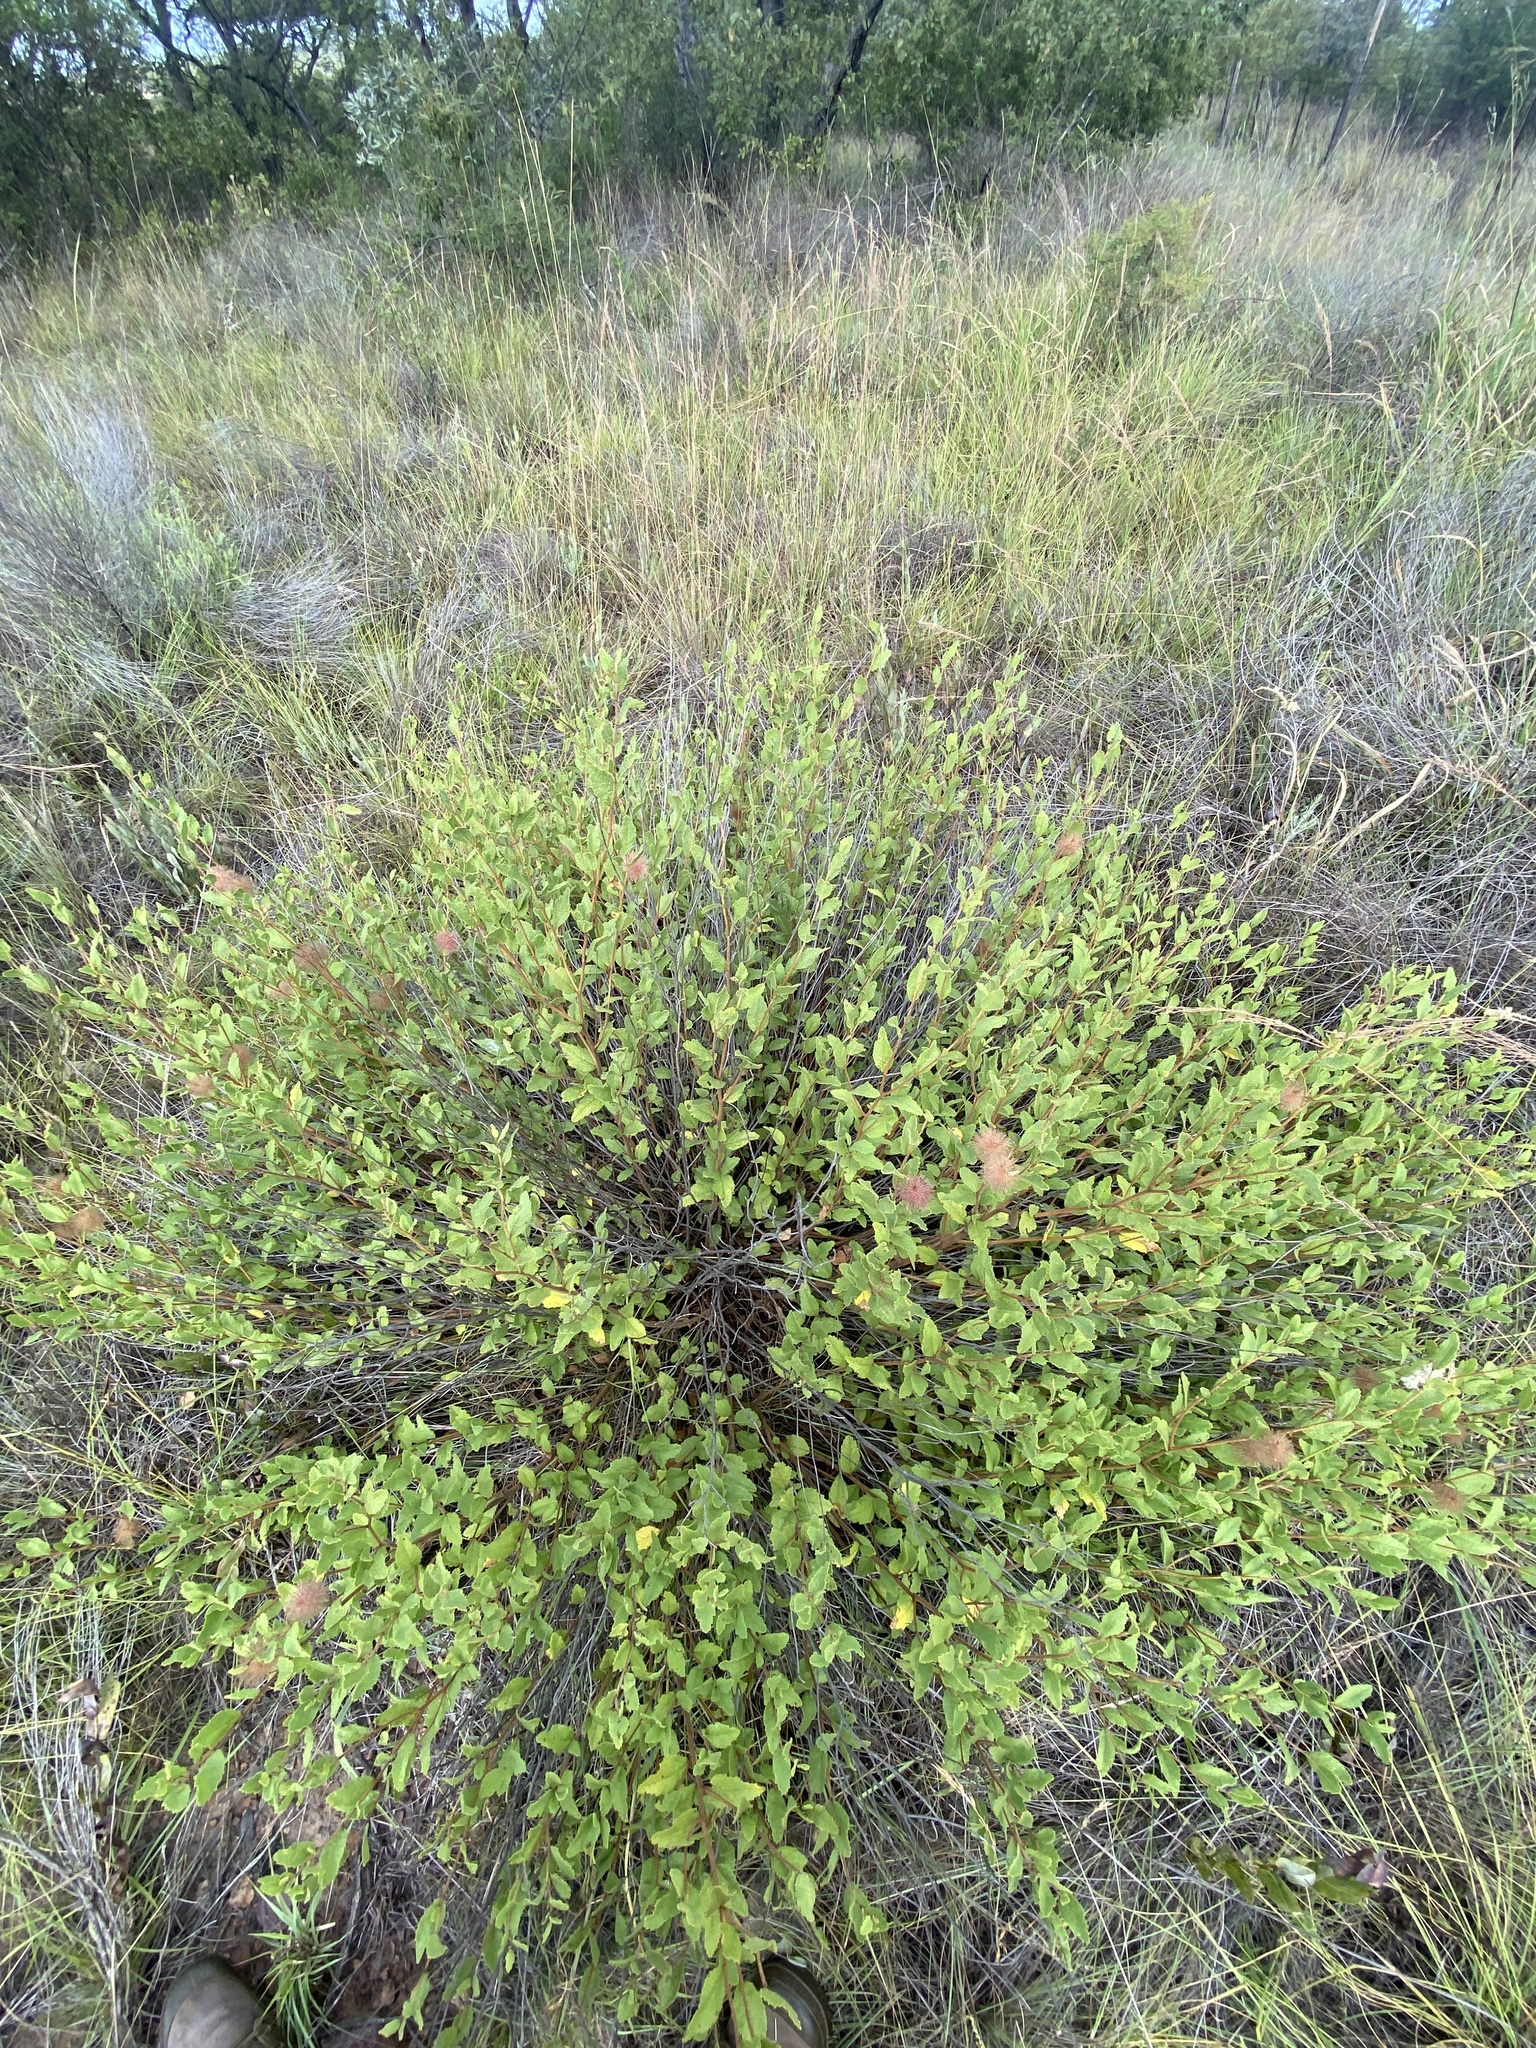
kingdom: Plantae
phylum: Tracheophyta
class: Magnoliopsida
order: Malvales
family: Malvaceae
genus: Triumfetta
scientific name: Triumfetta sonderi
